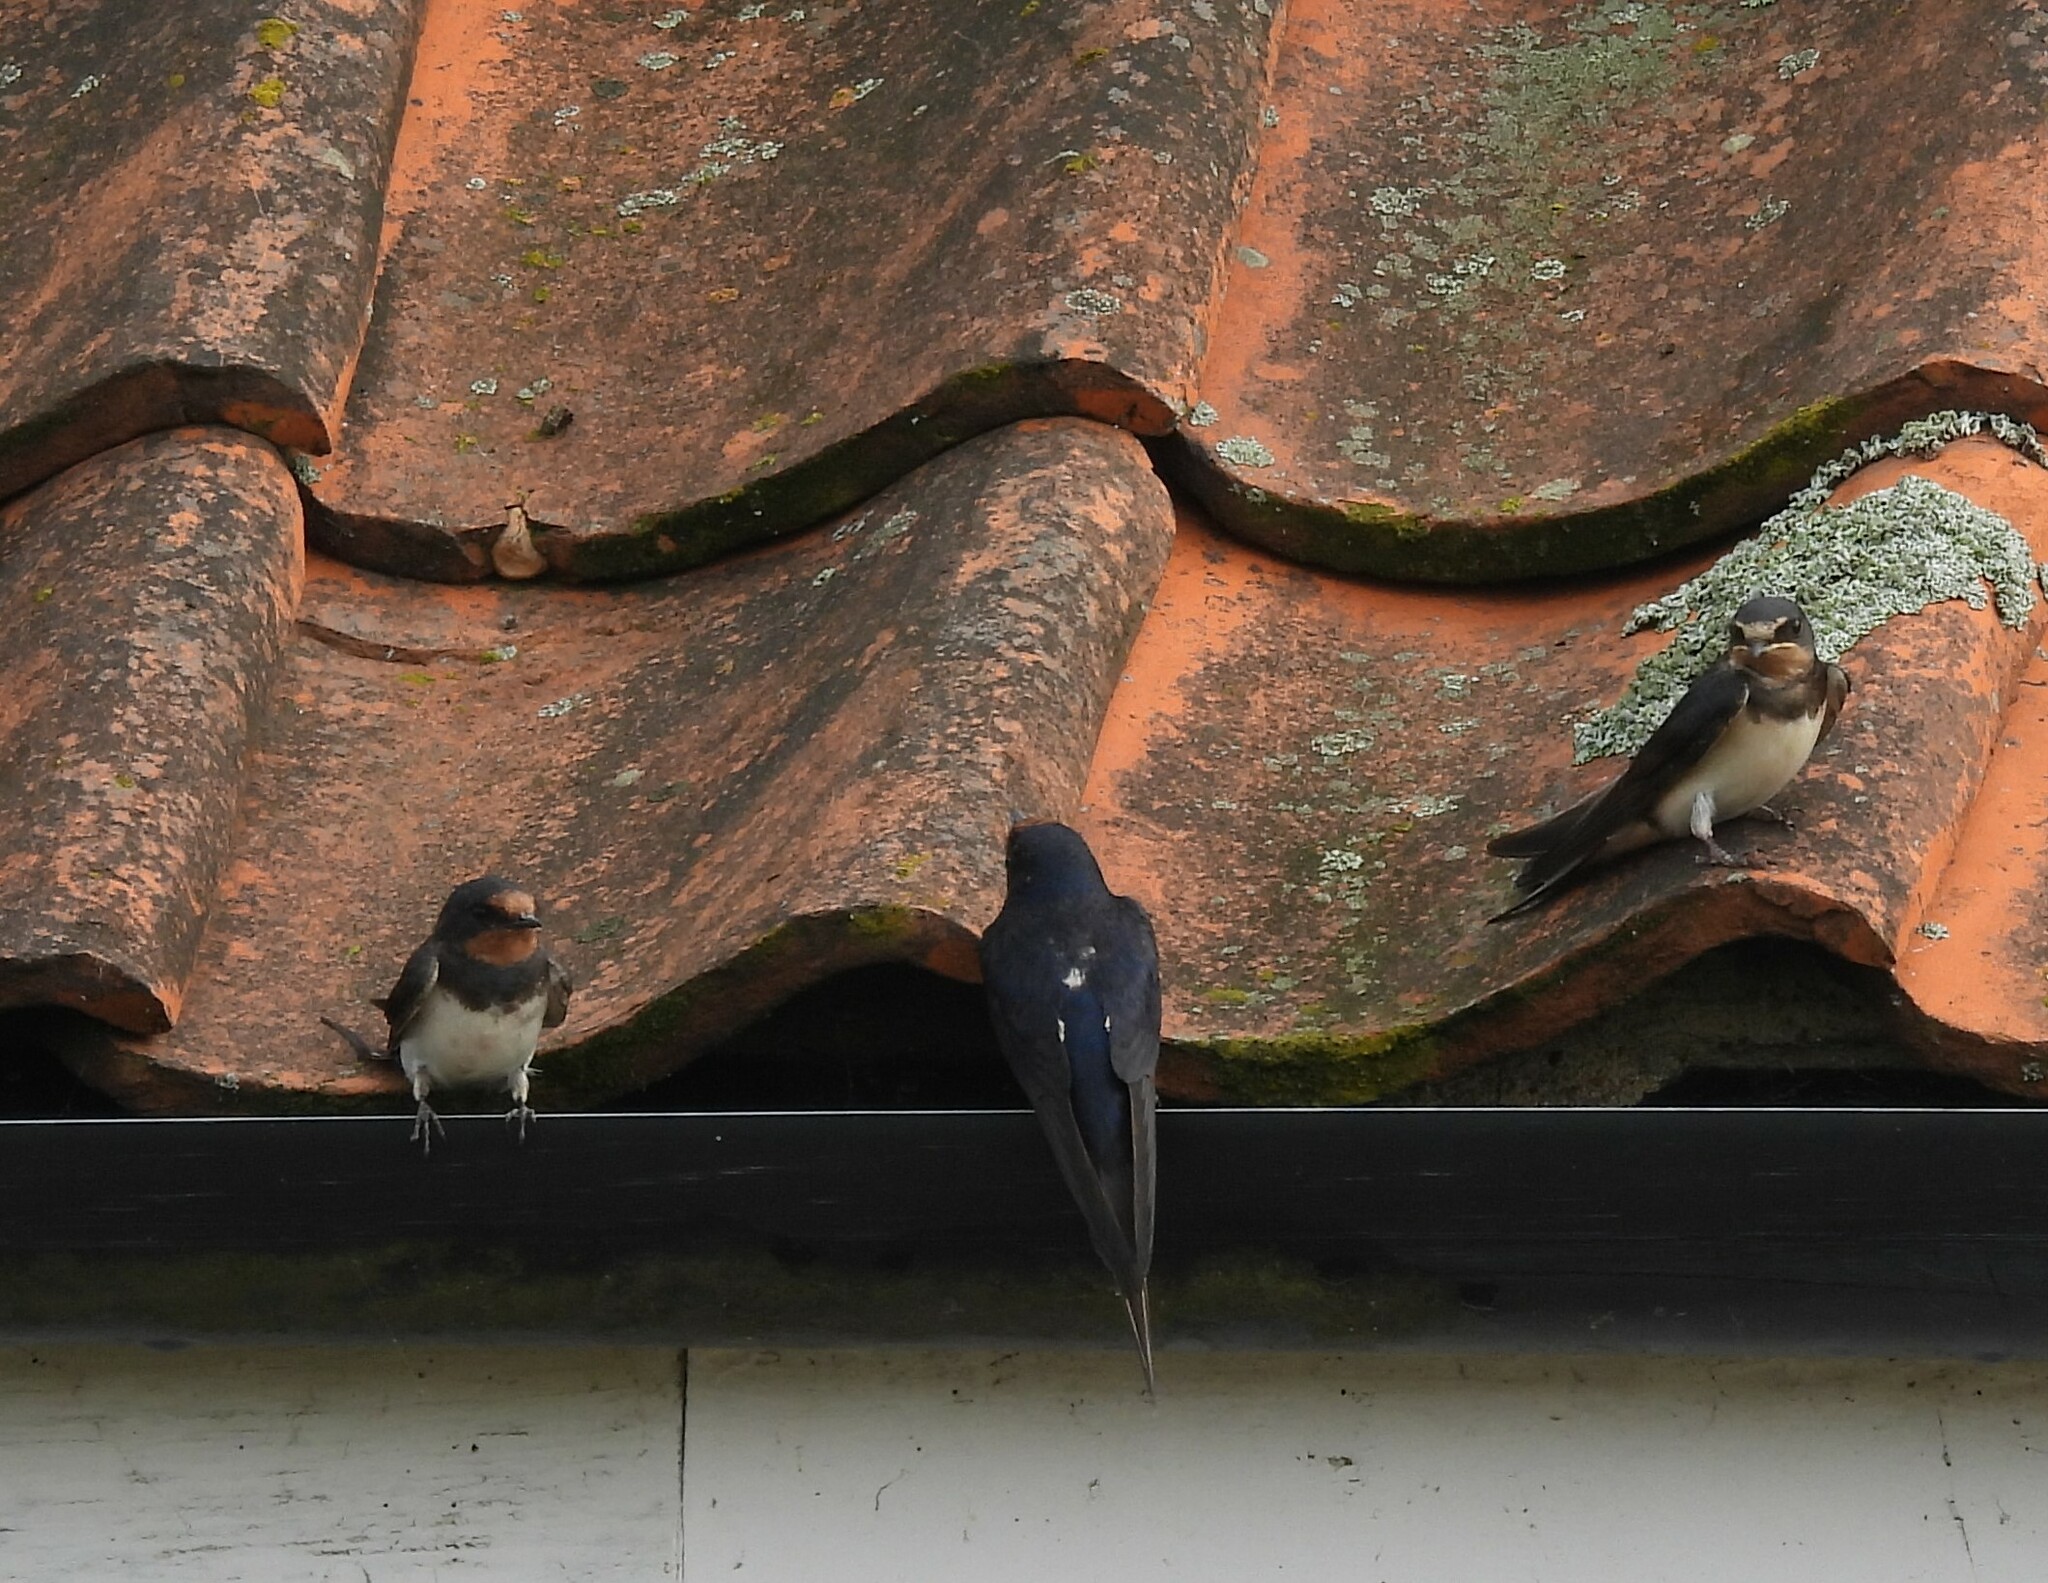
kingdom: Animalia
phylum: Chordata
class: Aves
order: Passeriformes
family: Hirundinidae
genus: Hirundo
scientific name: Hirundo rustica
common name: Barn swallow
